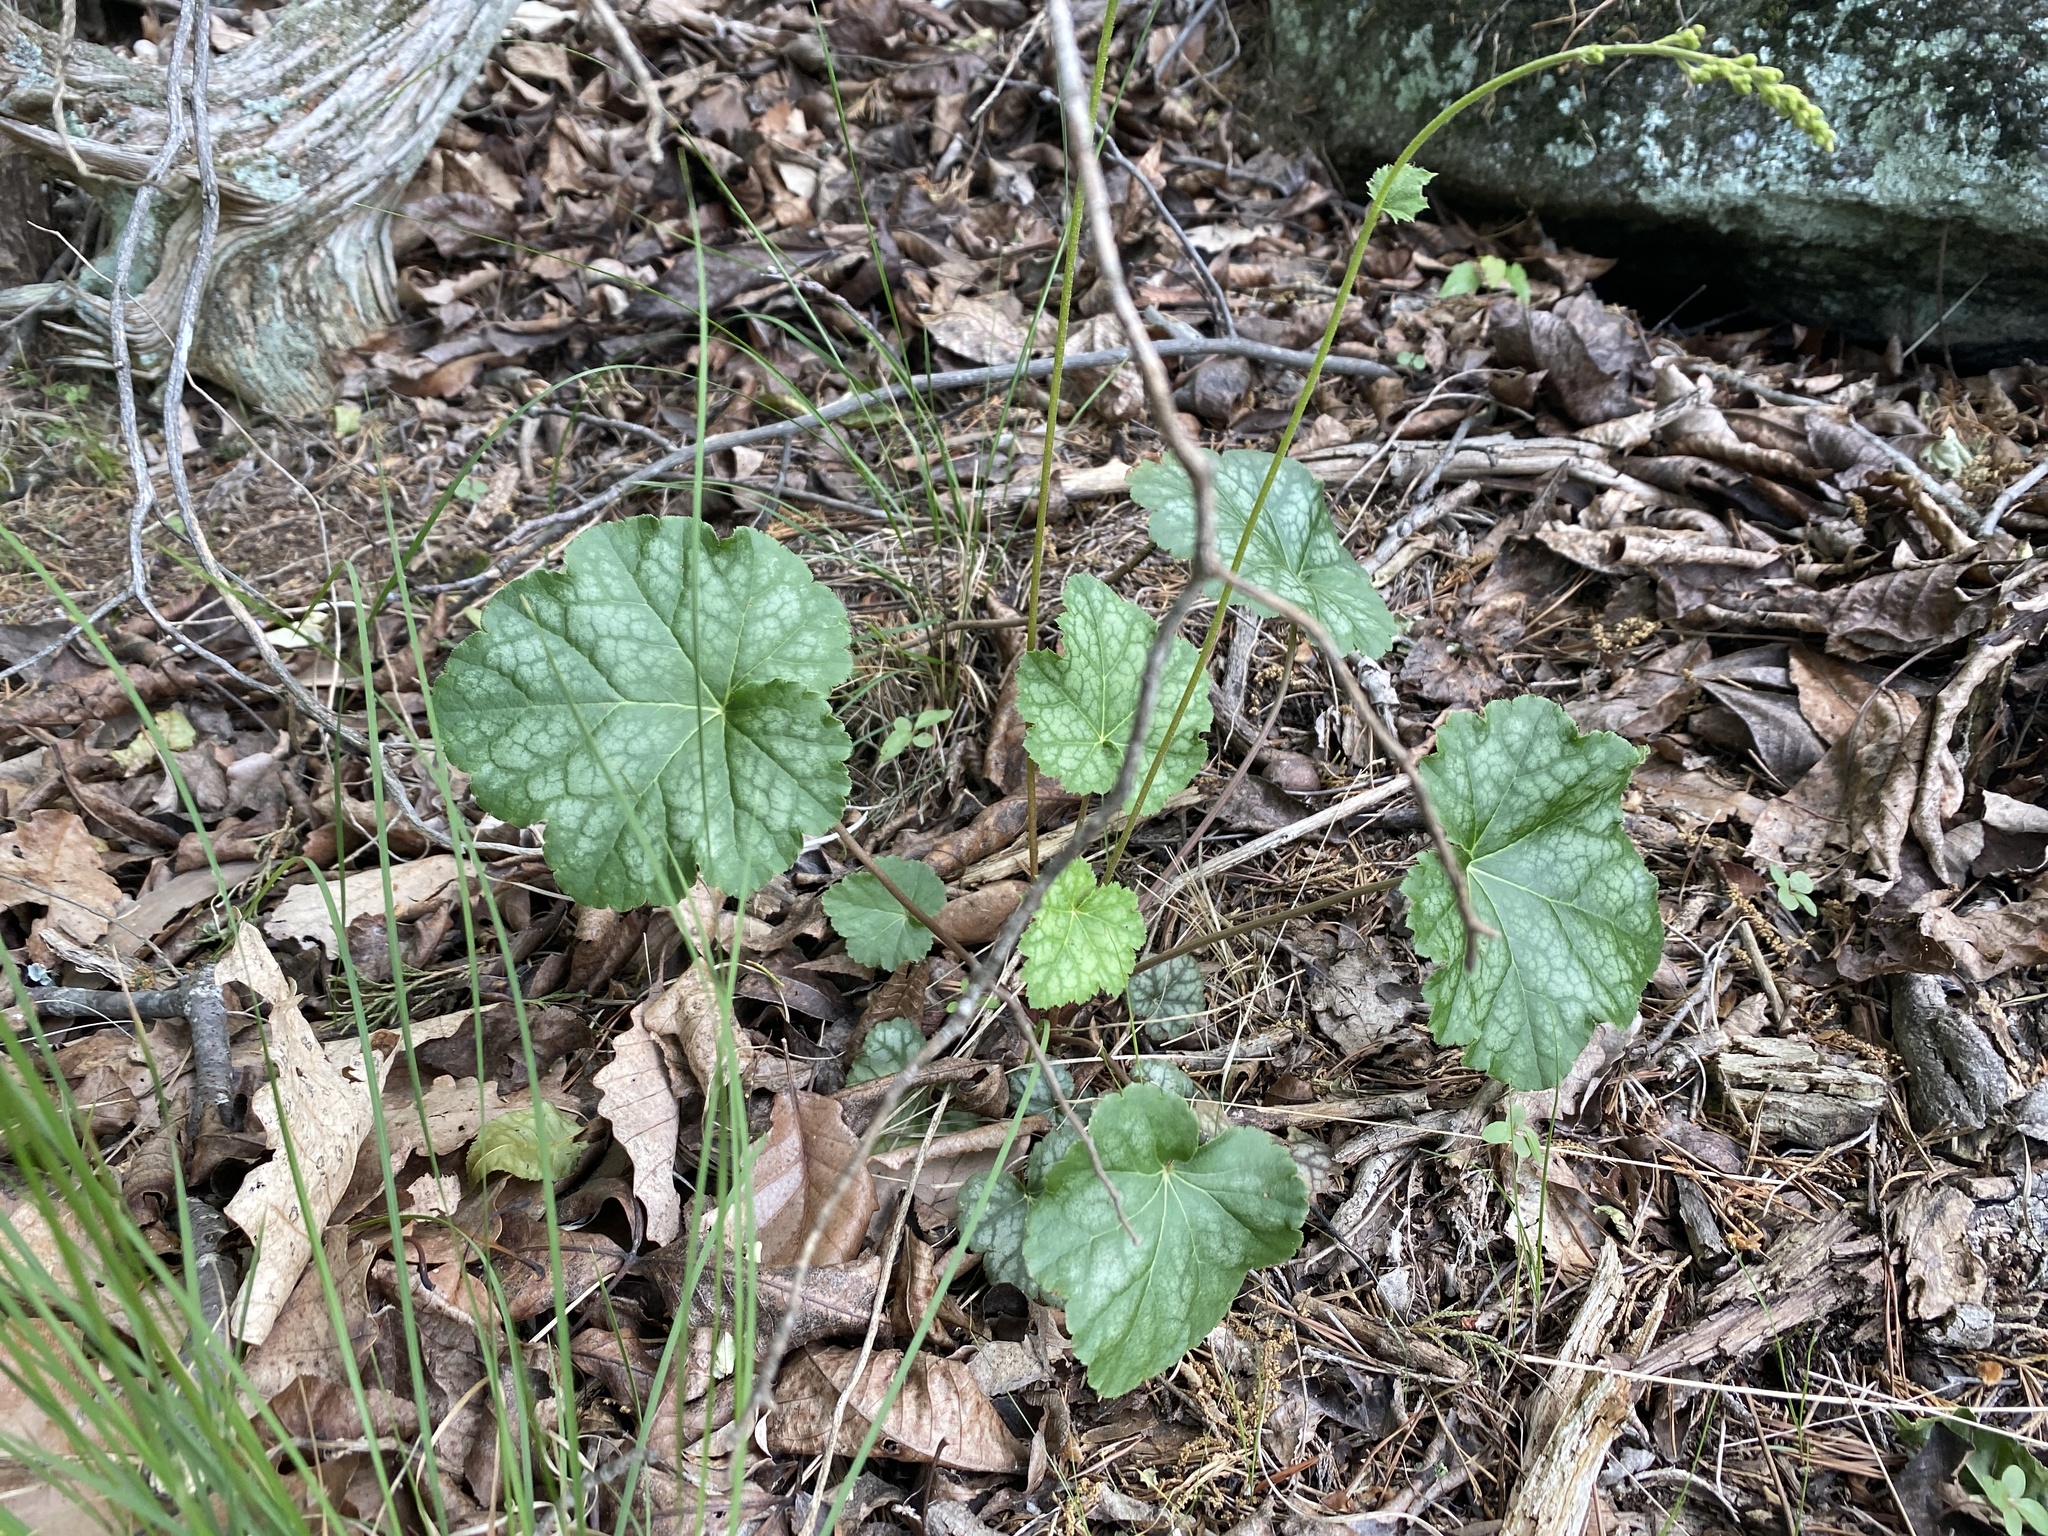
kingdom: Plantae
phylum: Tracheophyta
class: Magnoliopsida
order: Saxifragales
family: Saxifragaceae
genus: Heuchera
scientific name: Heuchera americana
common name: Alumroot
